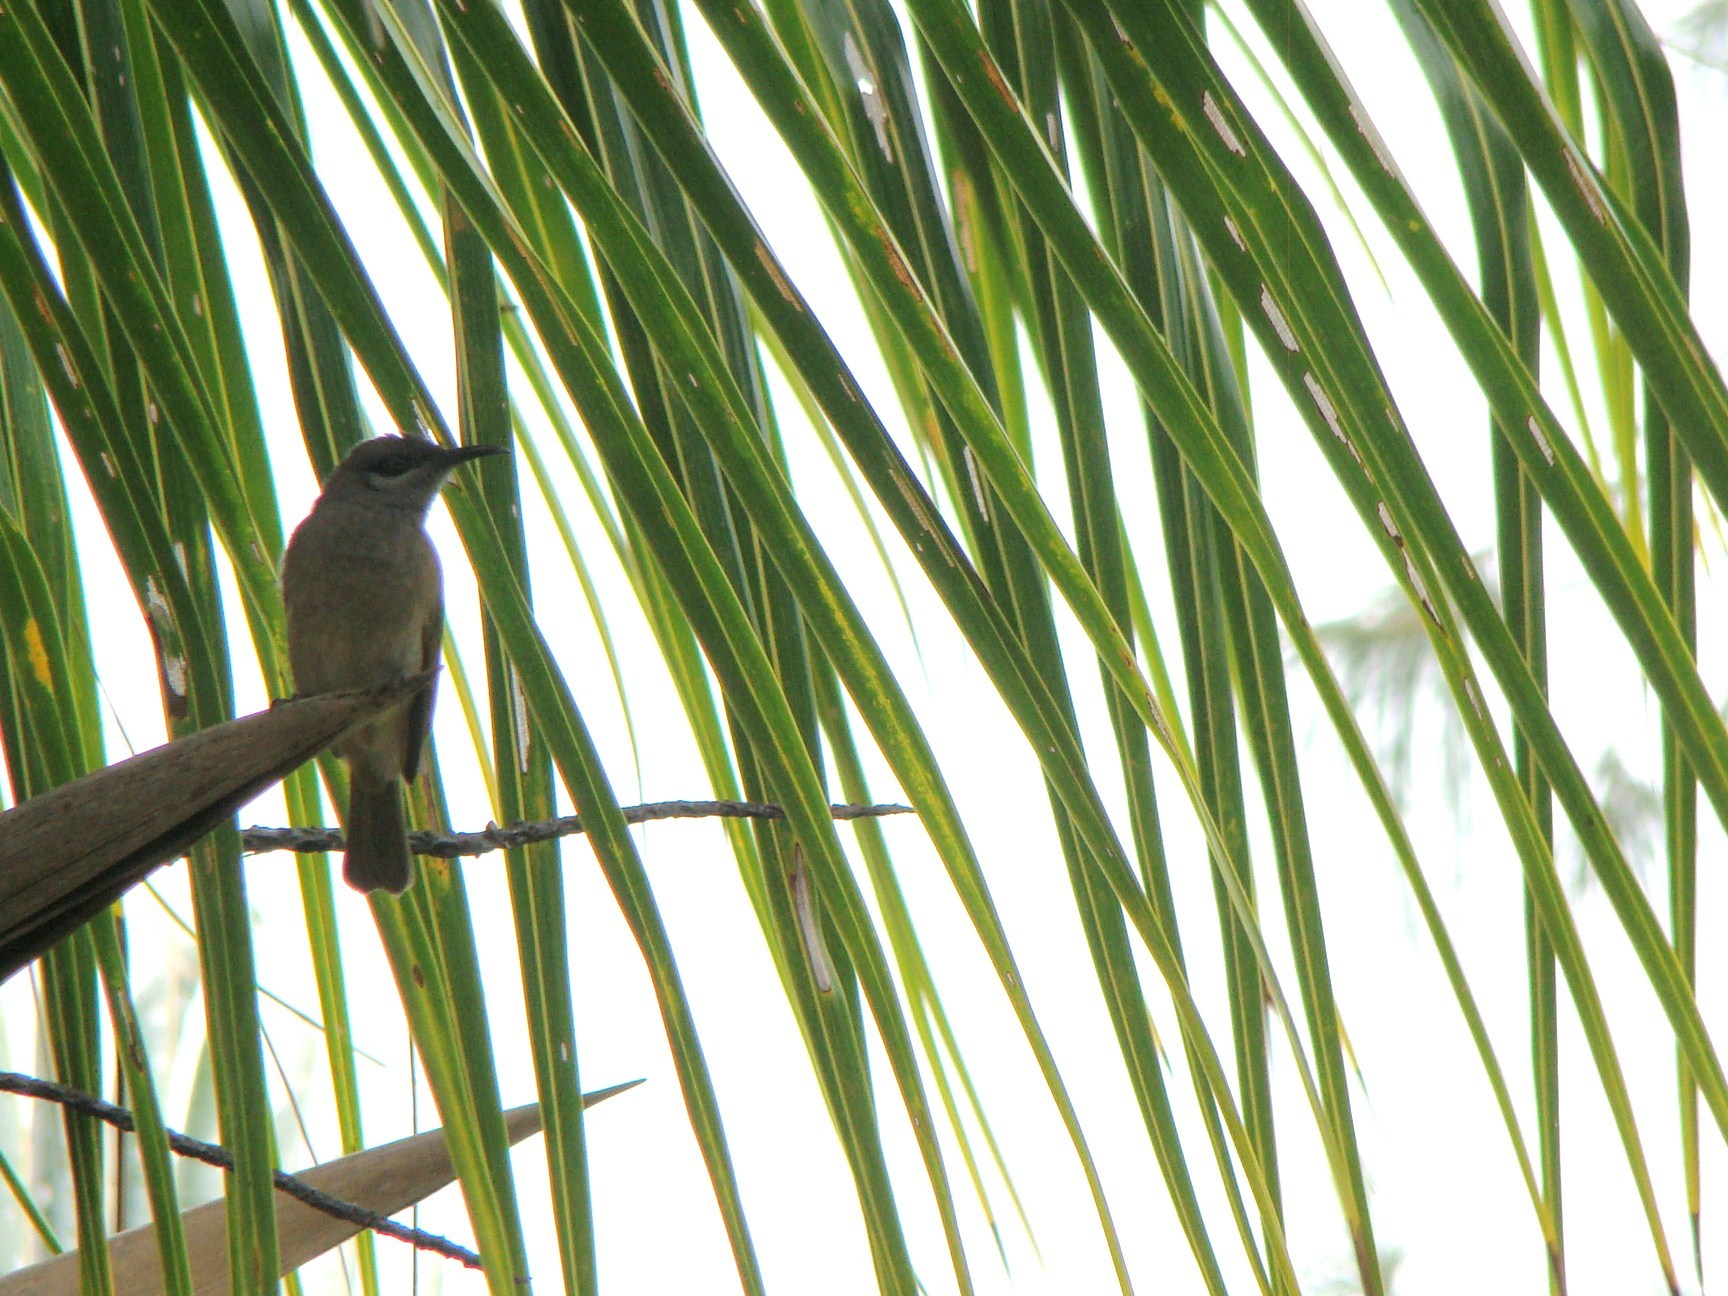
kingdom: Animalia
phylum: Chordata
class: Aves
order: Passeriformes
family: Meliphagidae
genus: Lichmera
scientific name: Lichmera incana
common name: Grey-eared honeyeater
